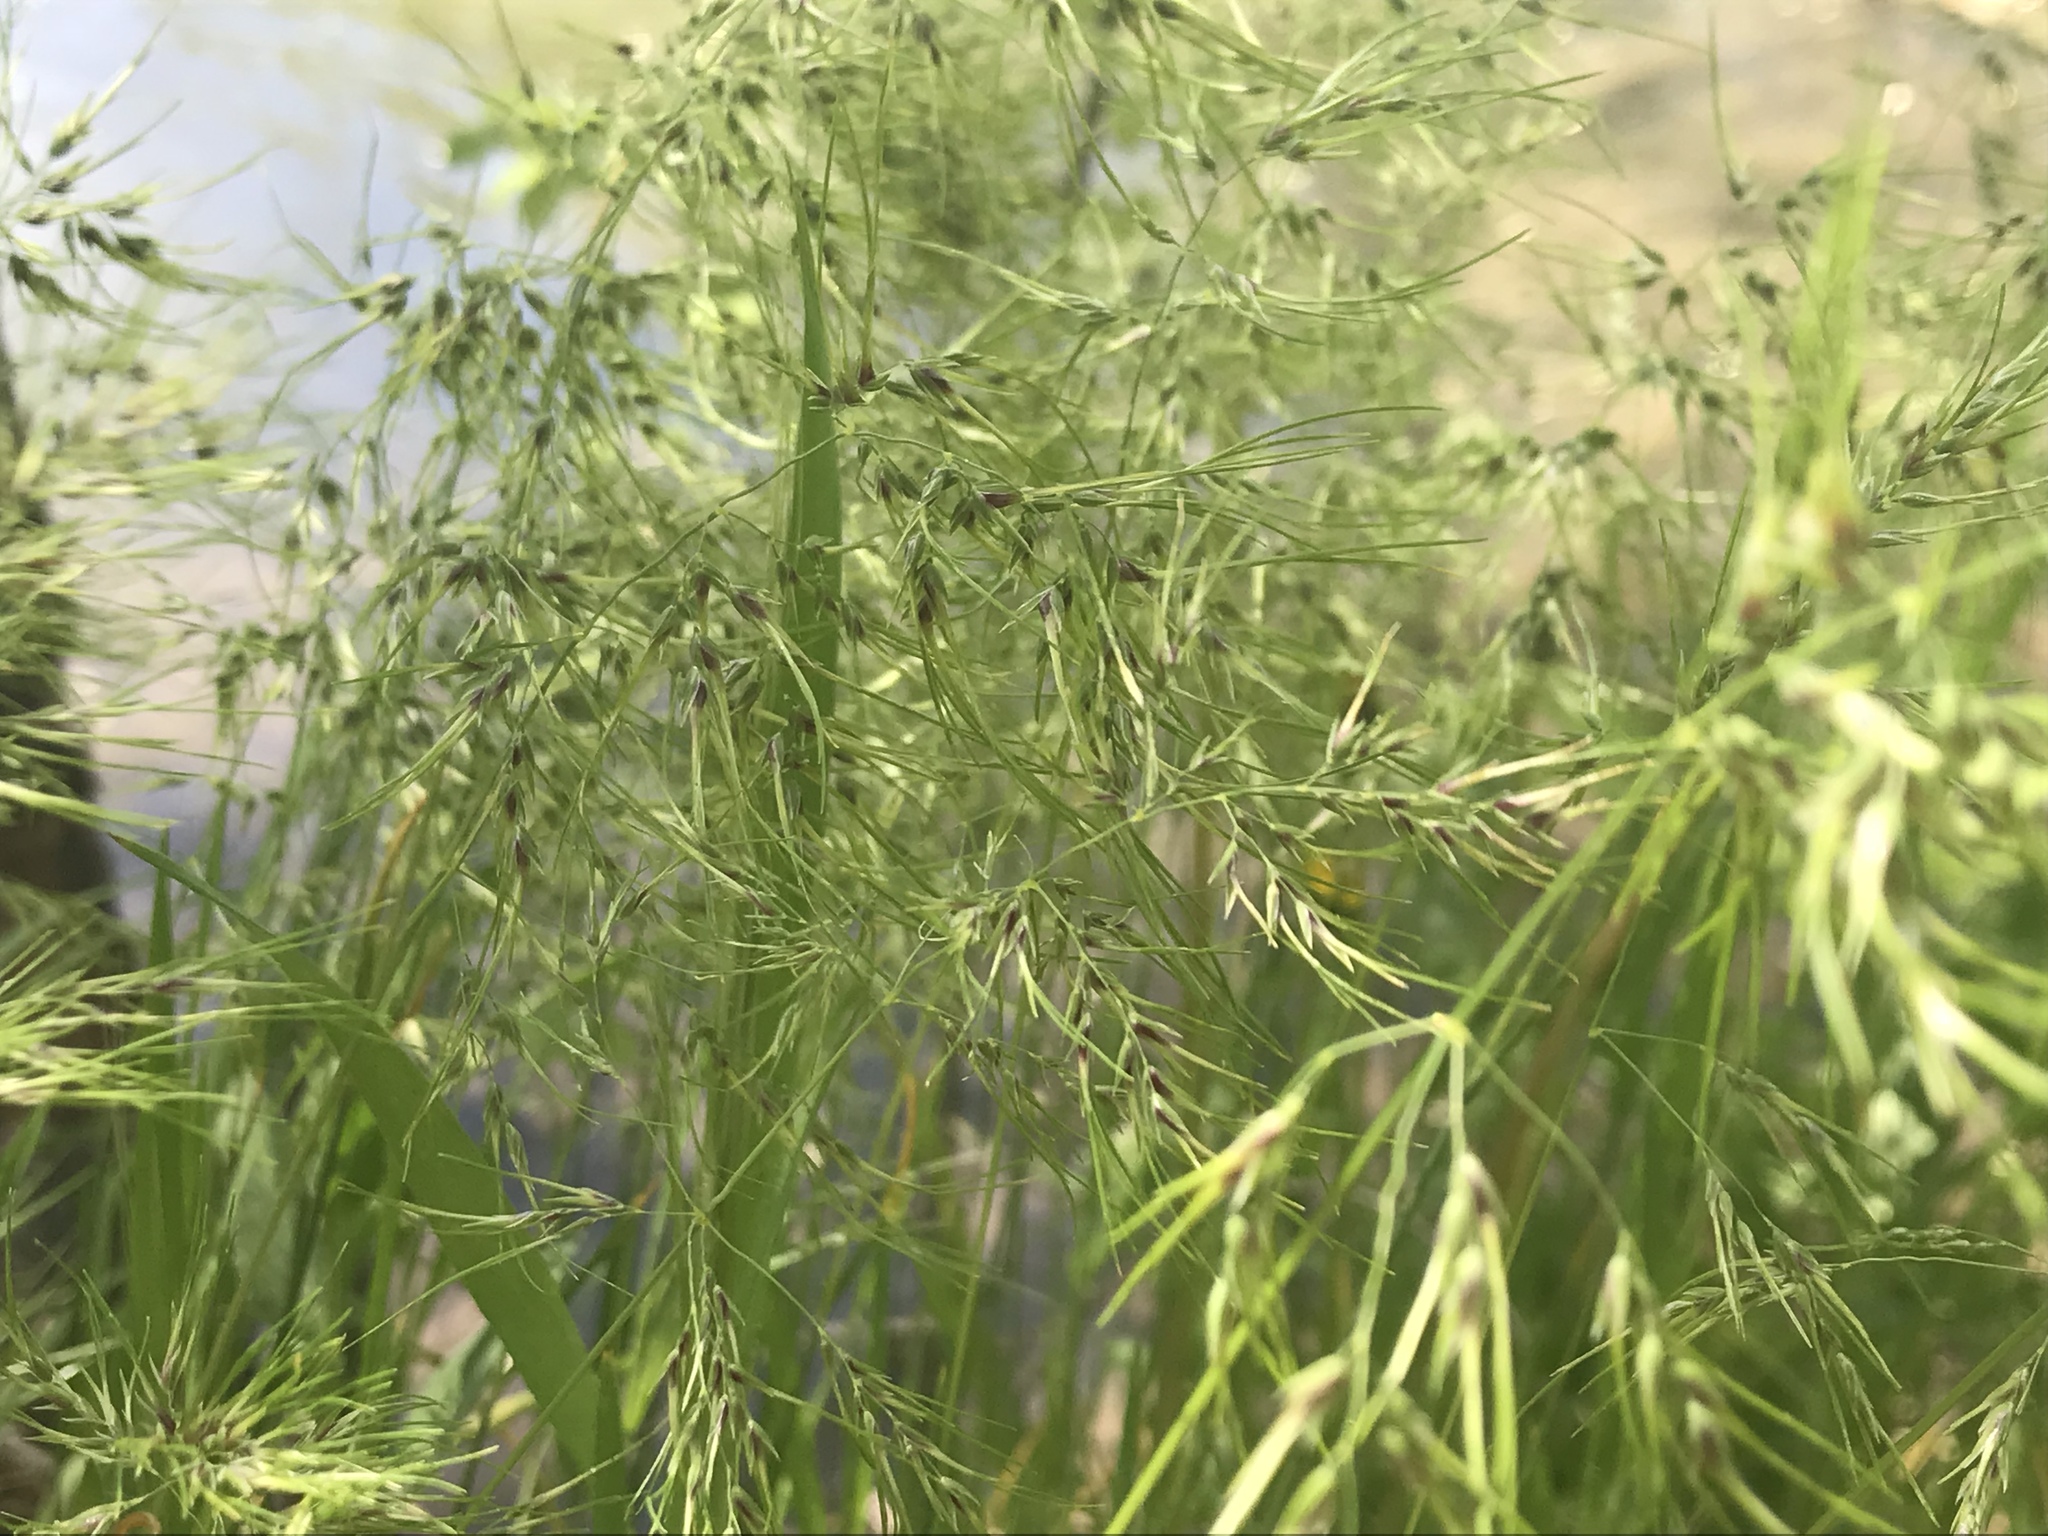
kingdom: Plantae
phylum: Tracheophyta
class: Liliopsida
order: Poales
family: Poaceae
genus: Poa
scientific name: Poa bulbosa
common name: Bulbous bluegrass
